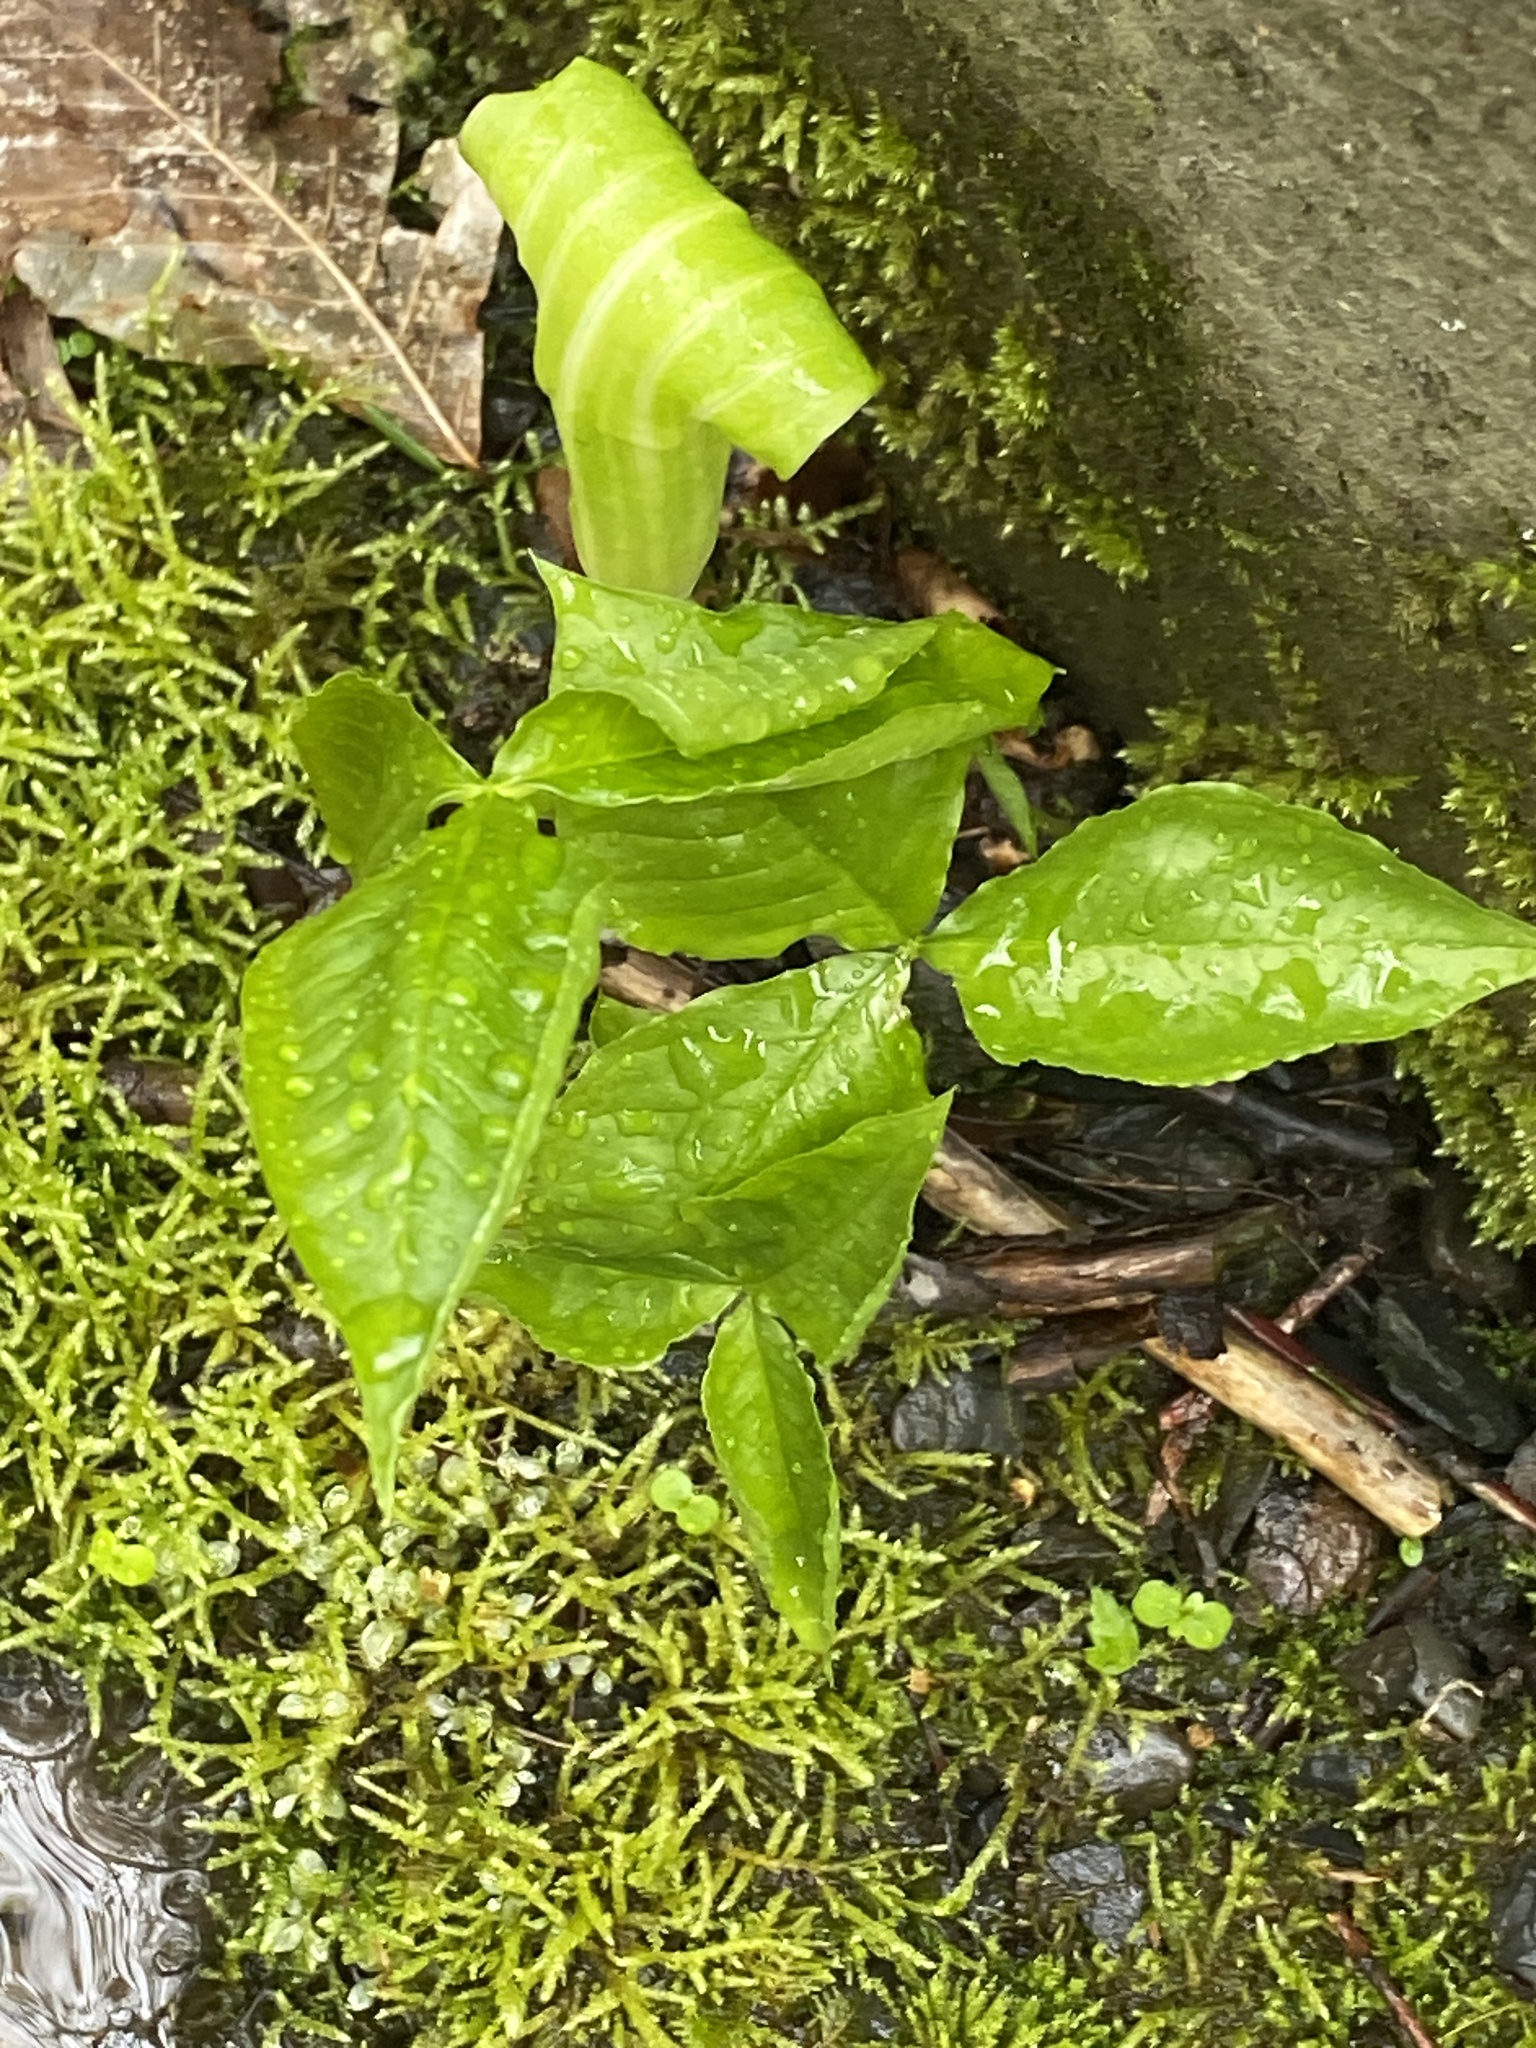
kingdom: Plantae
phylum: Tracheophyta
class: Liliopsida
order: Alismatales
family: Araceae
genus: Arisaema
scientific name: Arisaema triphyllum
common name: Jack-in-the-pulpit
